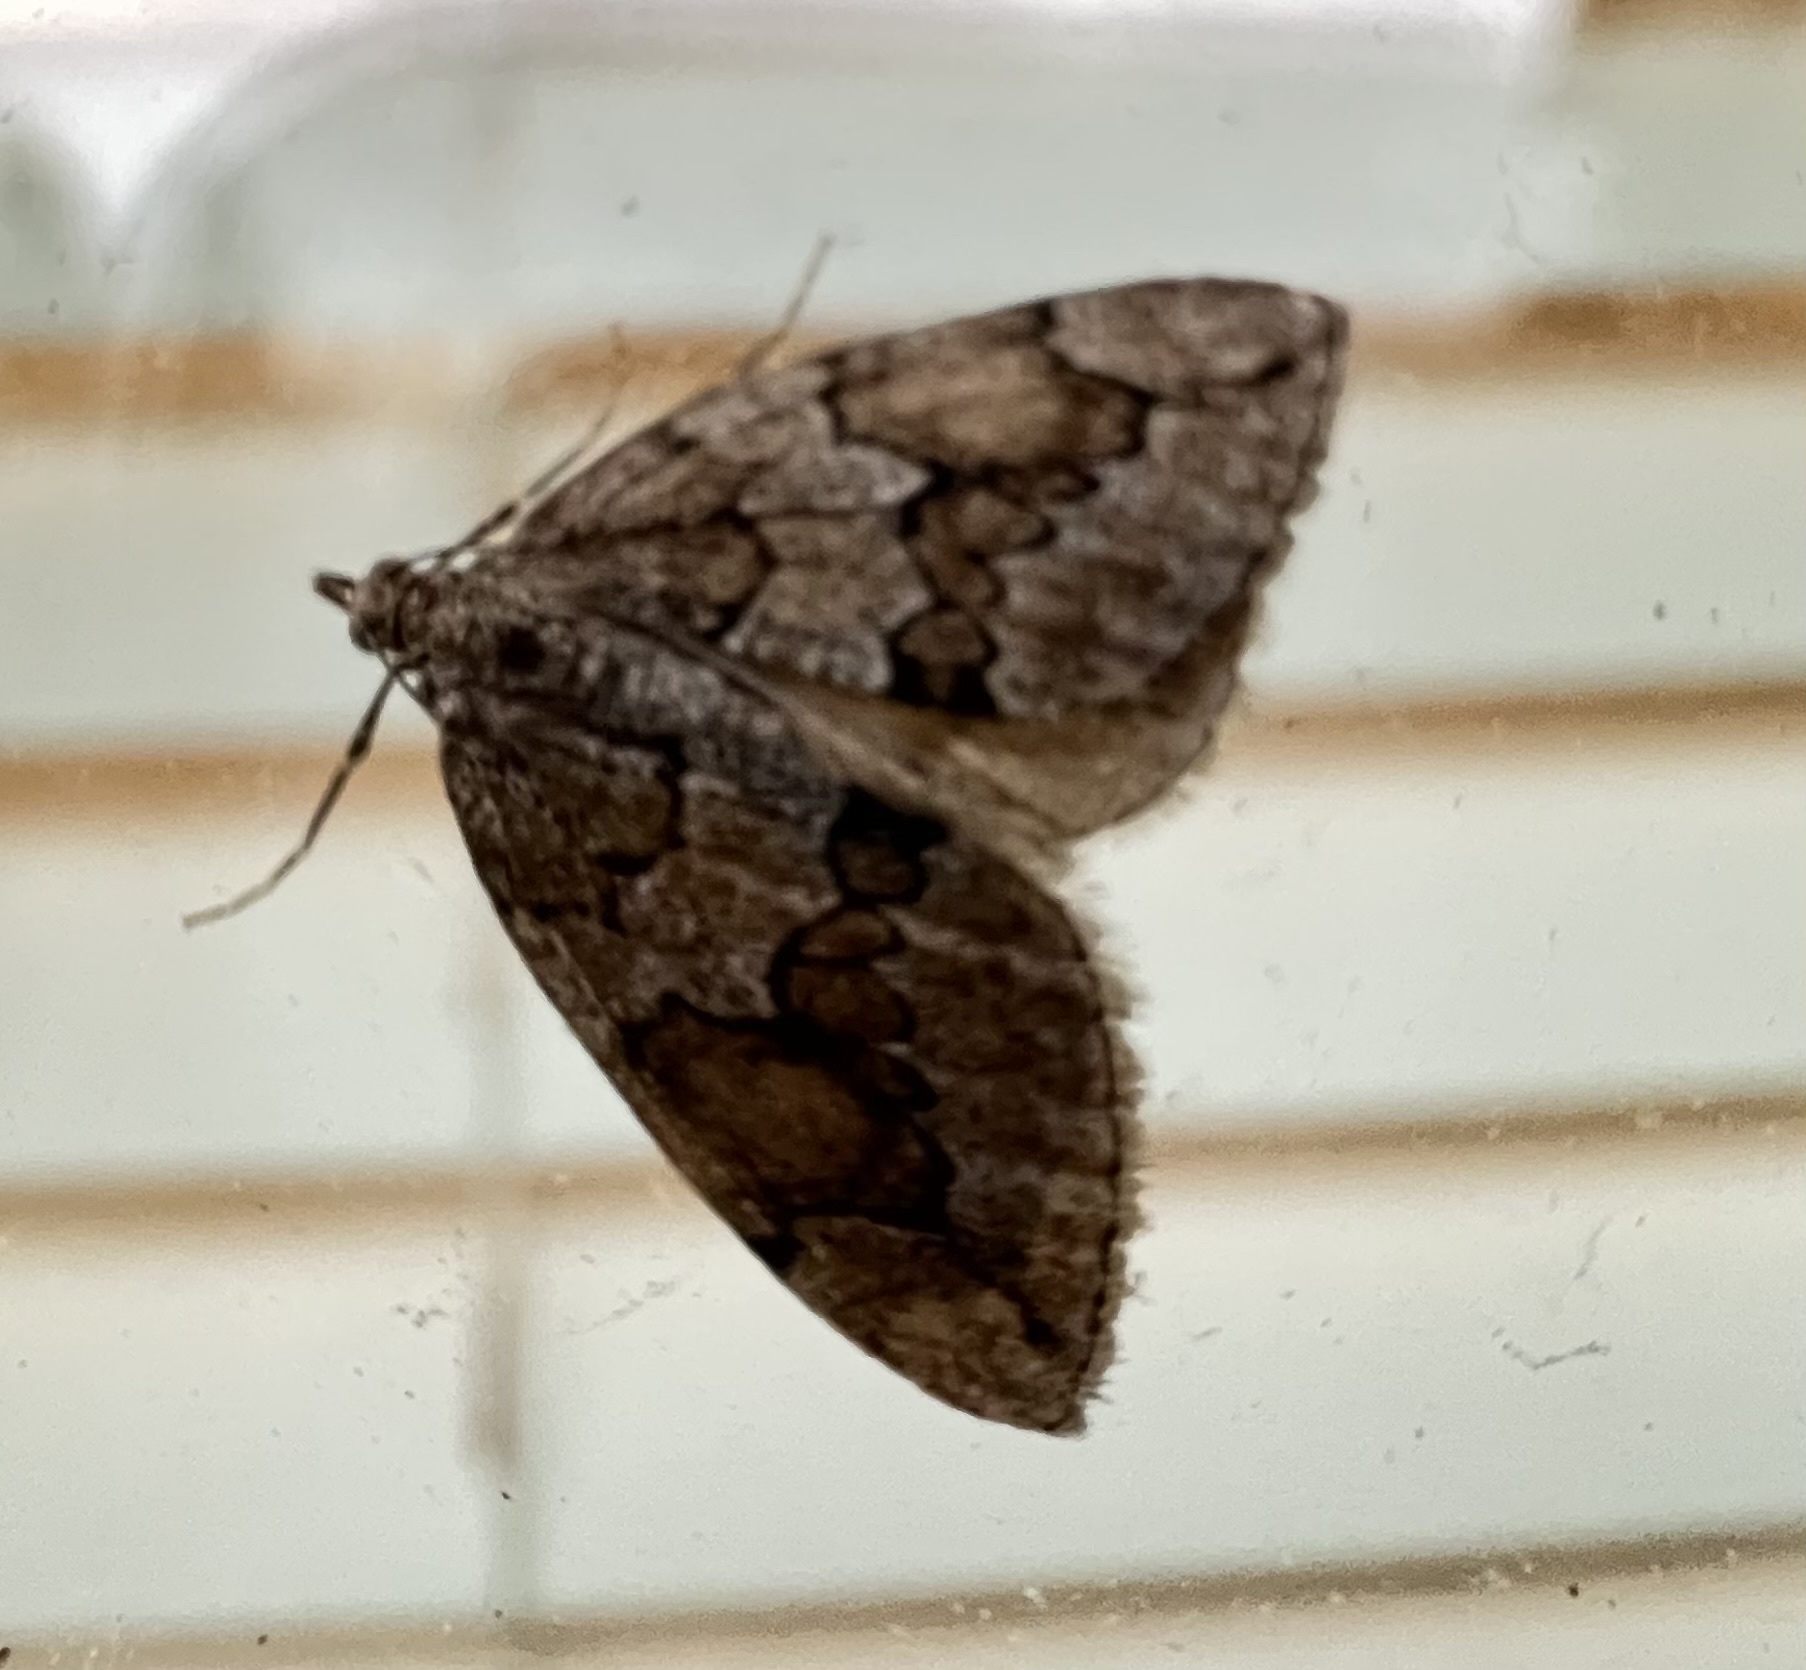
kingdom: Animalia
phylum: Arthropoda
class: Insecta
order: Lepidoptera
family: Geometridae
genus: Thera
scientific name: Thera juniperata
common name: Juniper carpet
